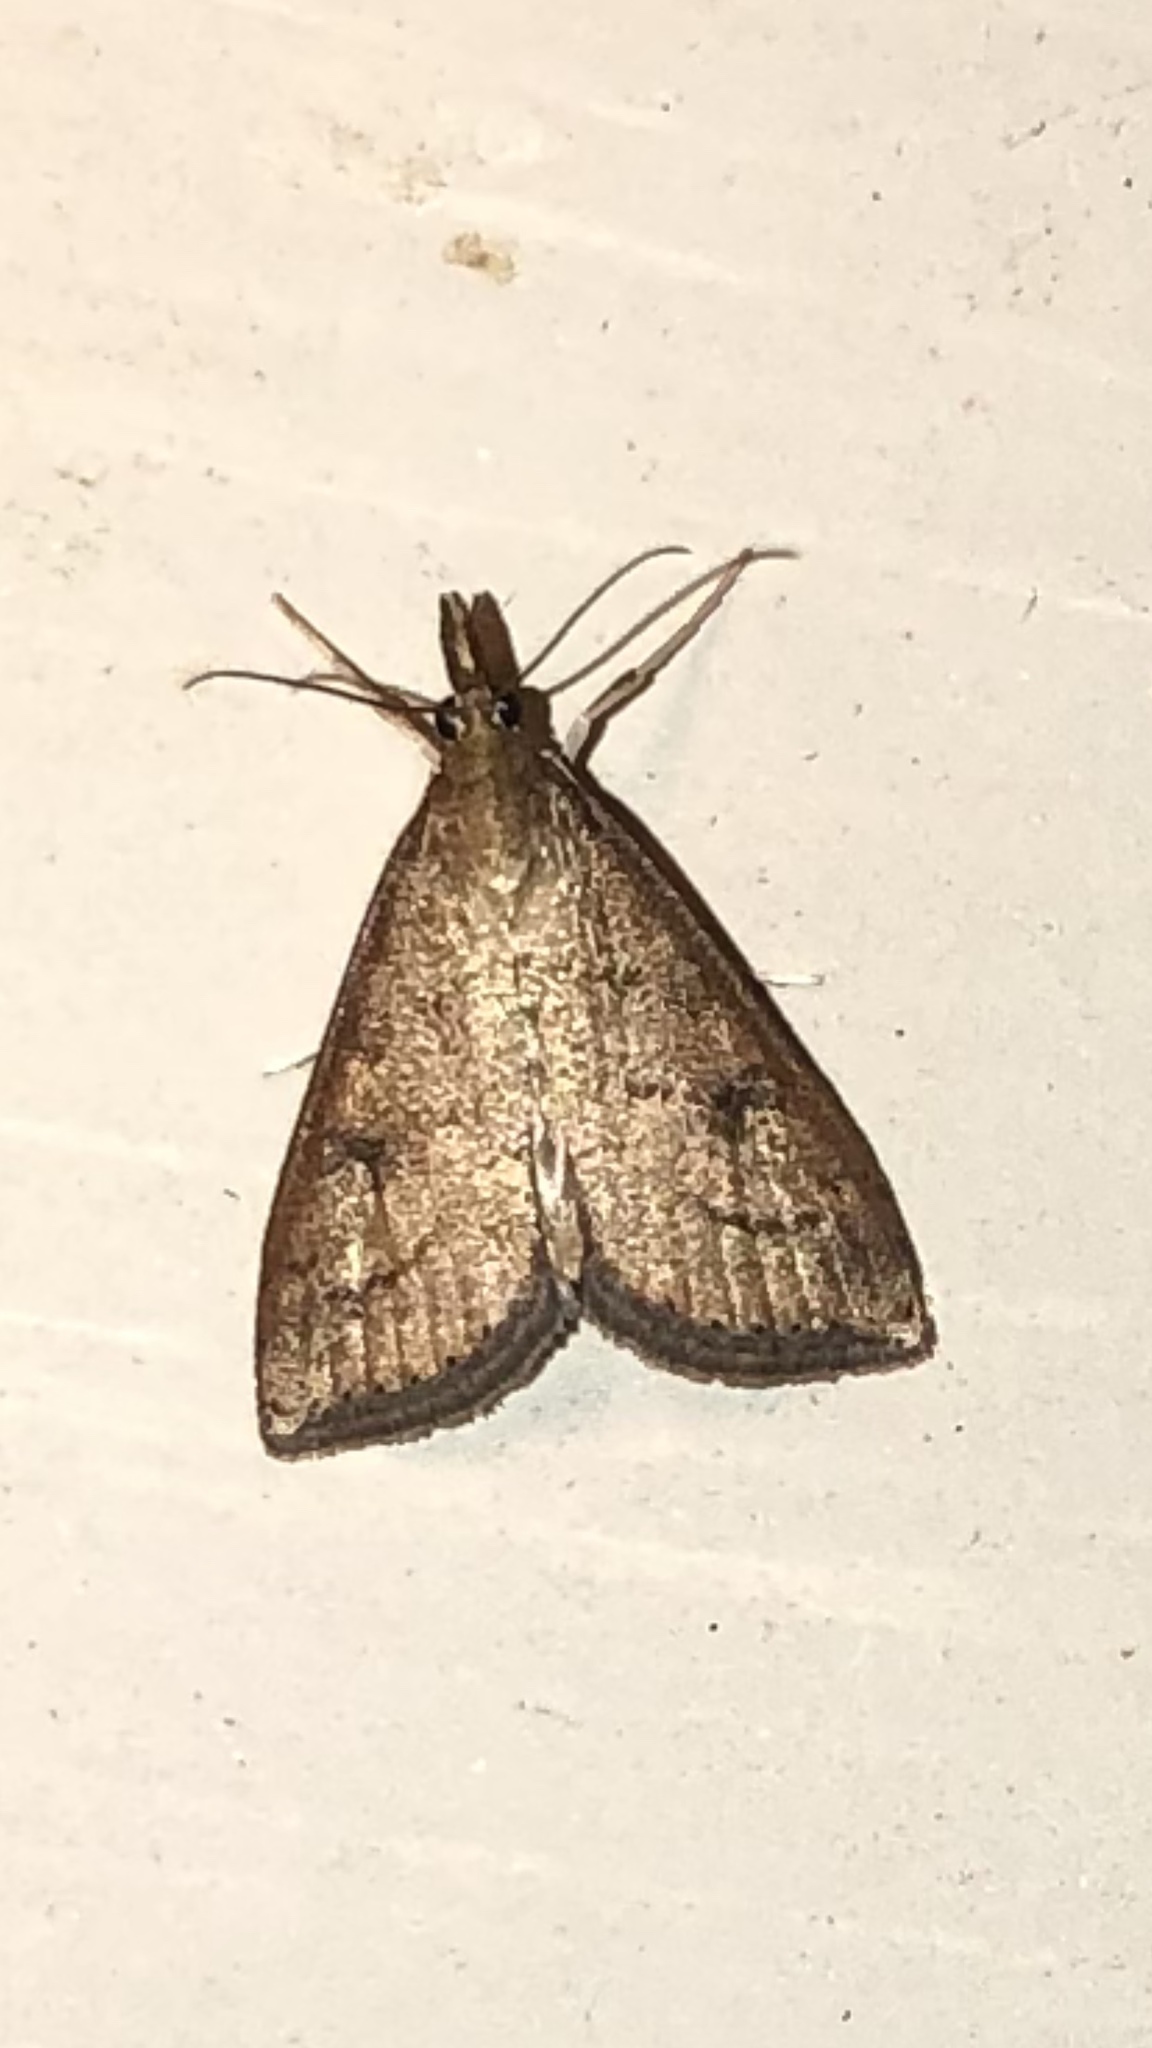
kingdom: Animalia
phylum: Arthropoda
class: Insecta
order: Lepidoptera
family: Crambidae
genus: Udea
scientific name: Udea rubigalis
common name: Celery leaftier moth
